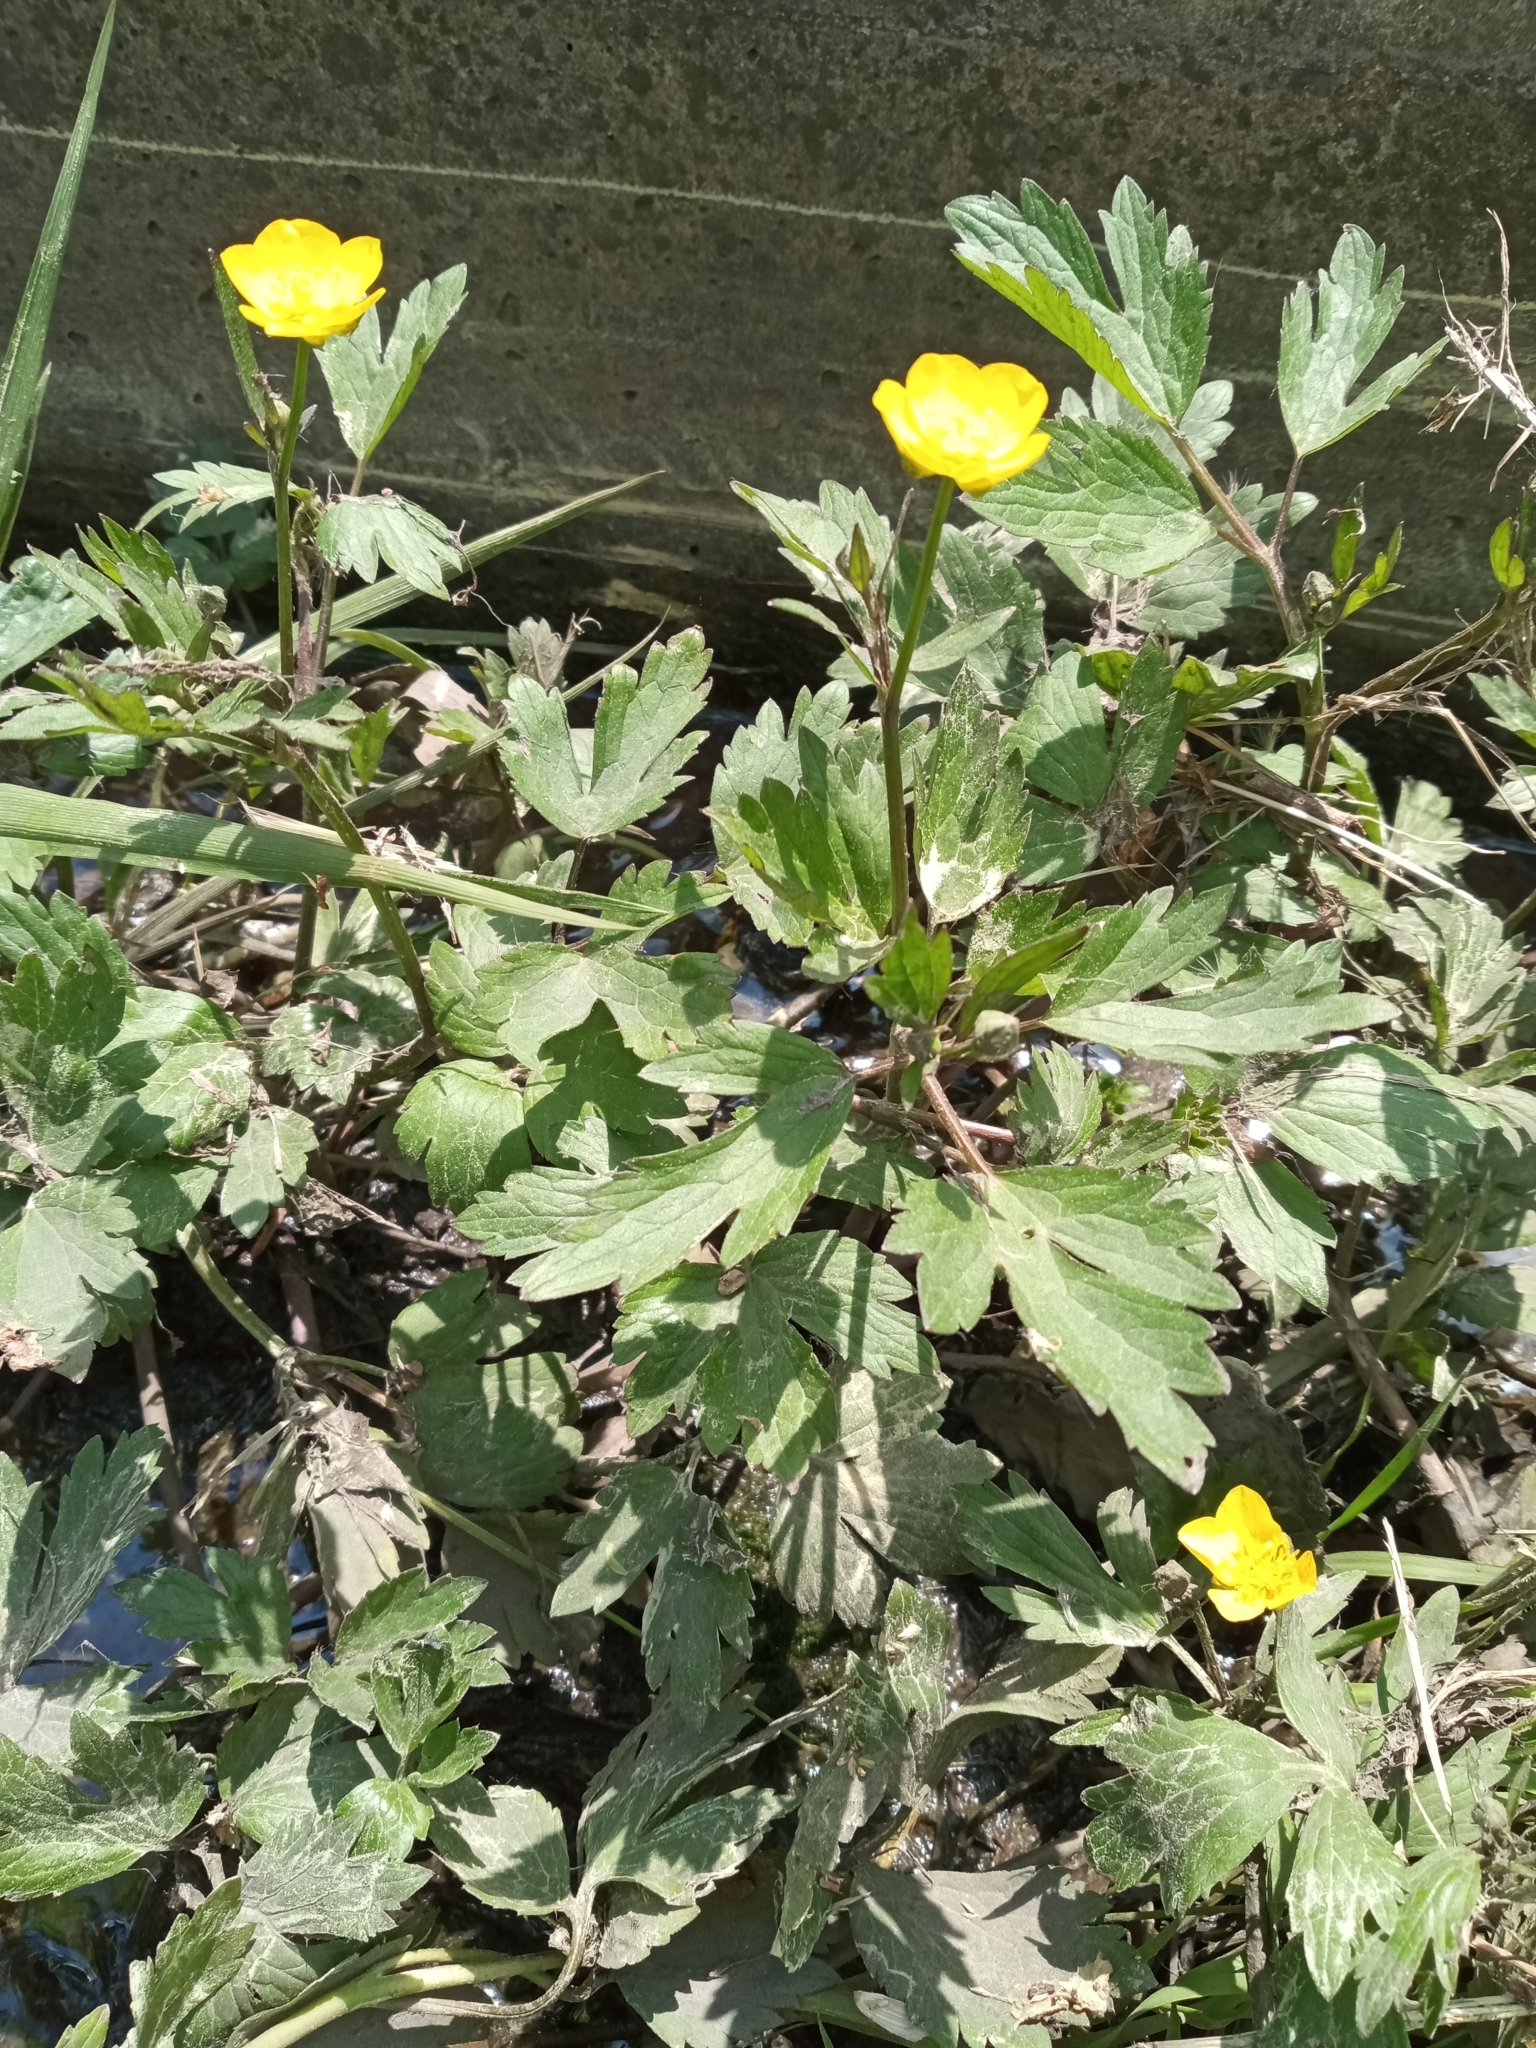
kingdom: Plantae
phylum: Tracheophyta
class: Magnoliopsida
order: Ranunculales
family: Ranunculaceae
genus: Ranunculus
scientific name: Ranunculus repens
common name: Creeping buttercup
